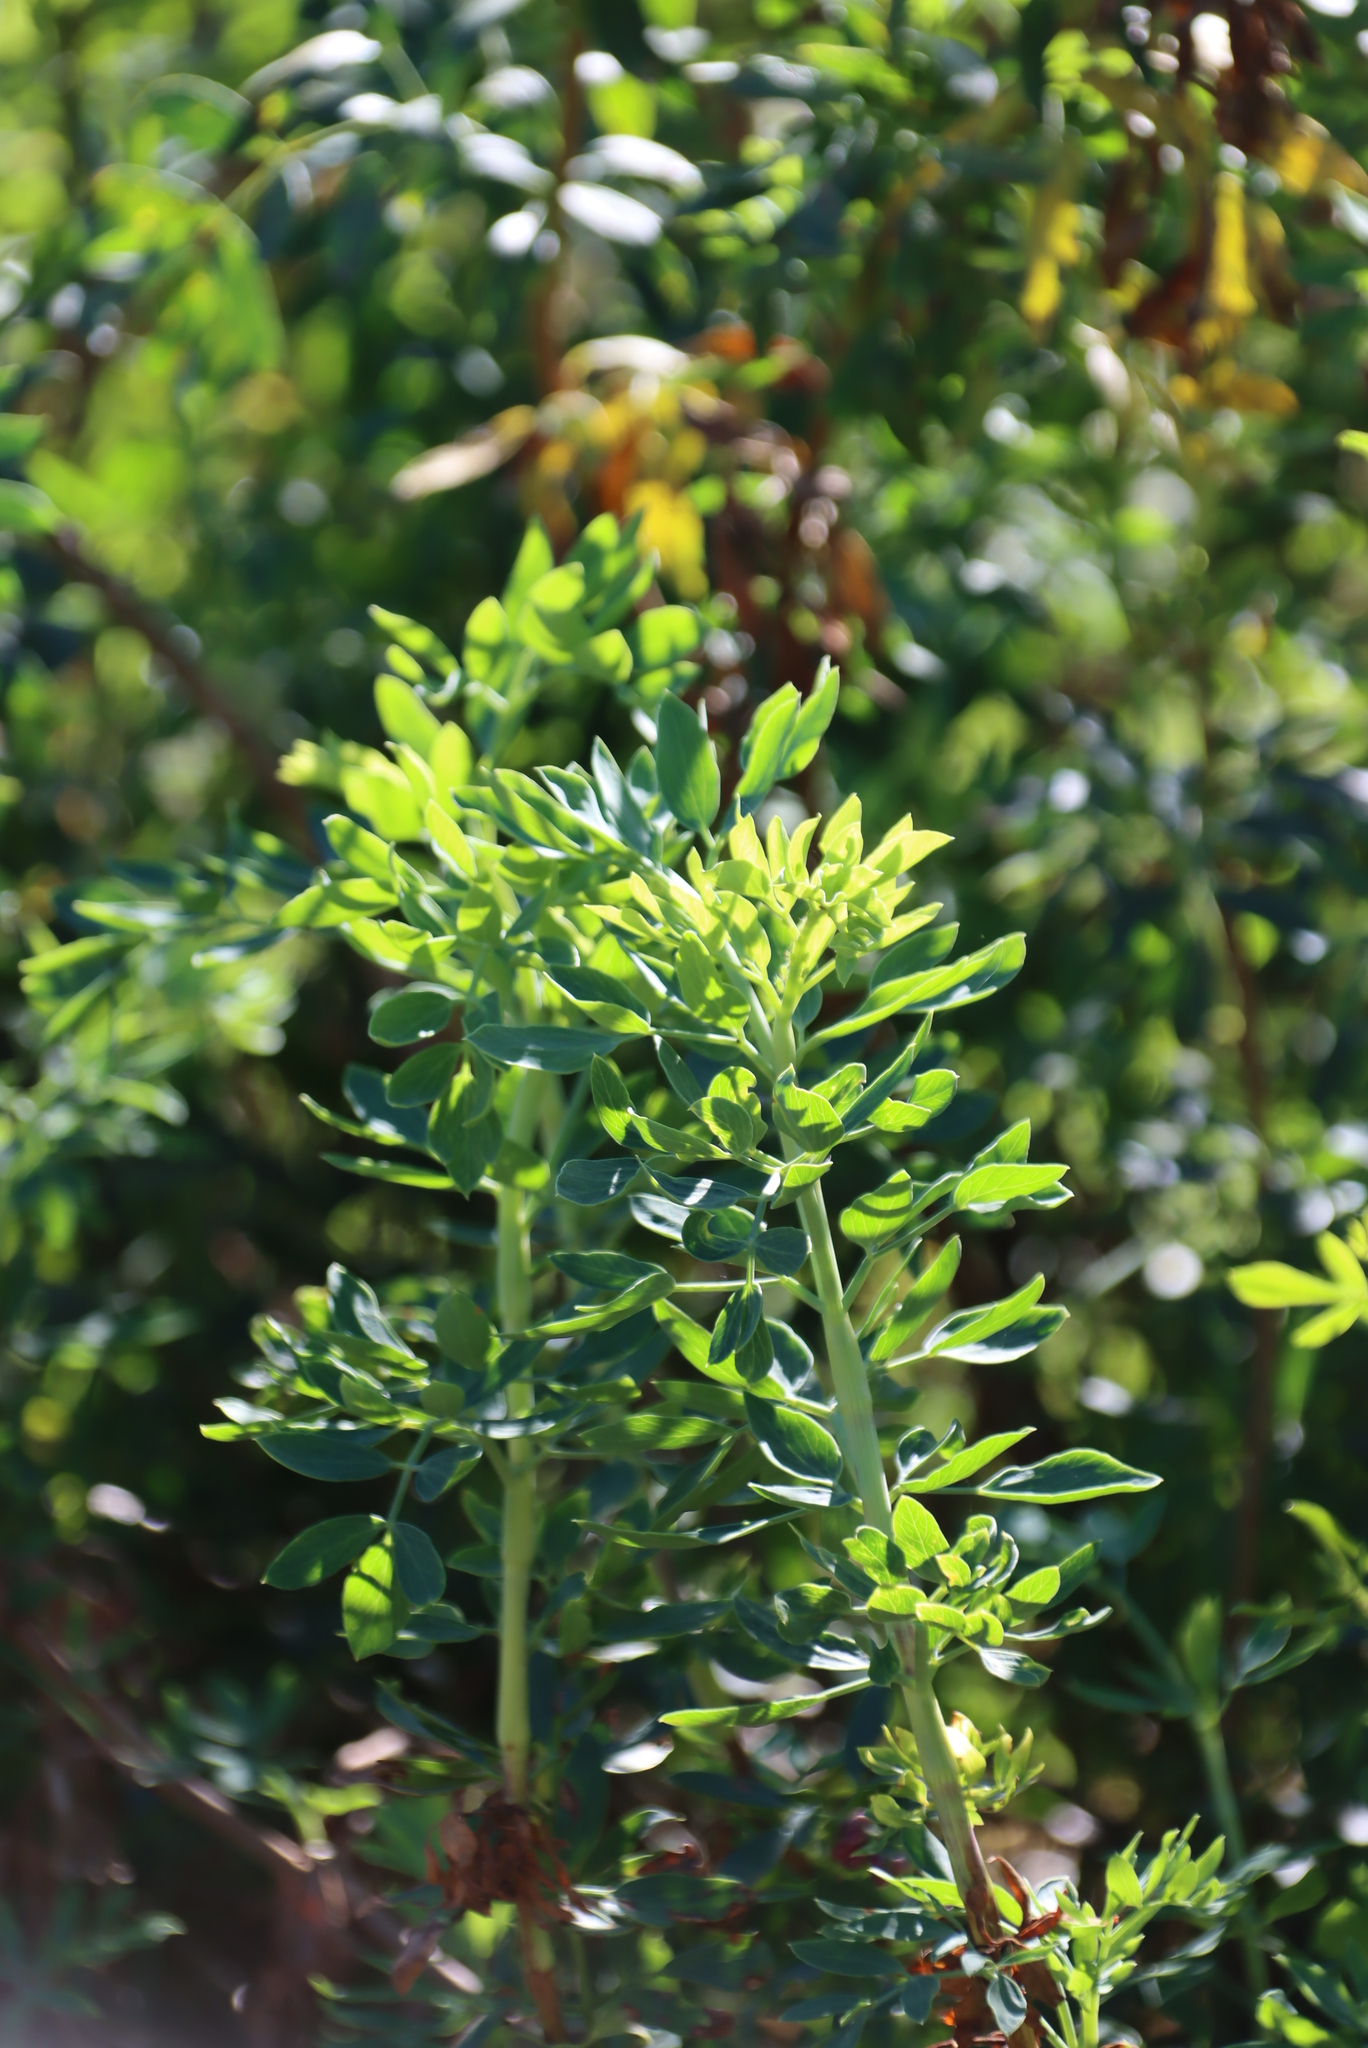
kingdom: Plantae
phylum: Tracheophyta
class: Magnoliopsida
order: Apiales
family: Apiaceae
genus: Notobubon
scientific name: Notobubon laevigatum
